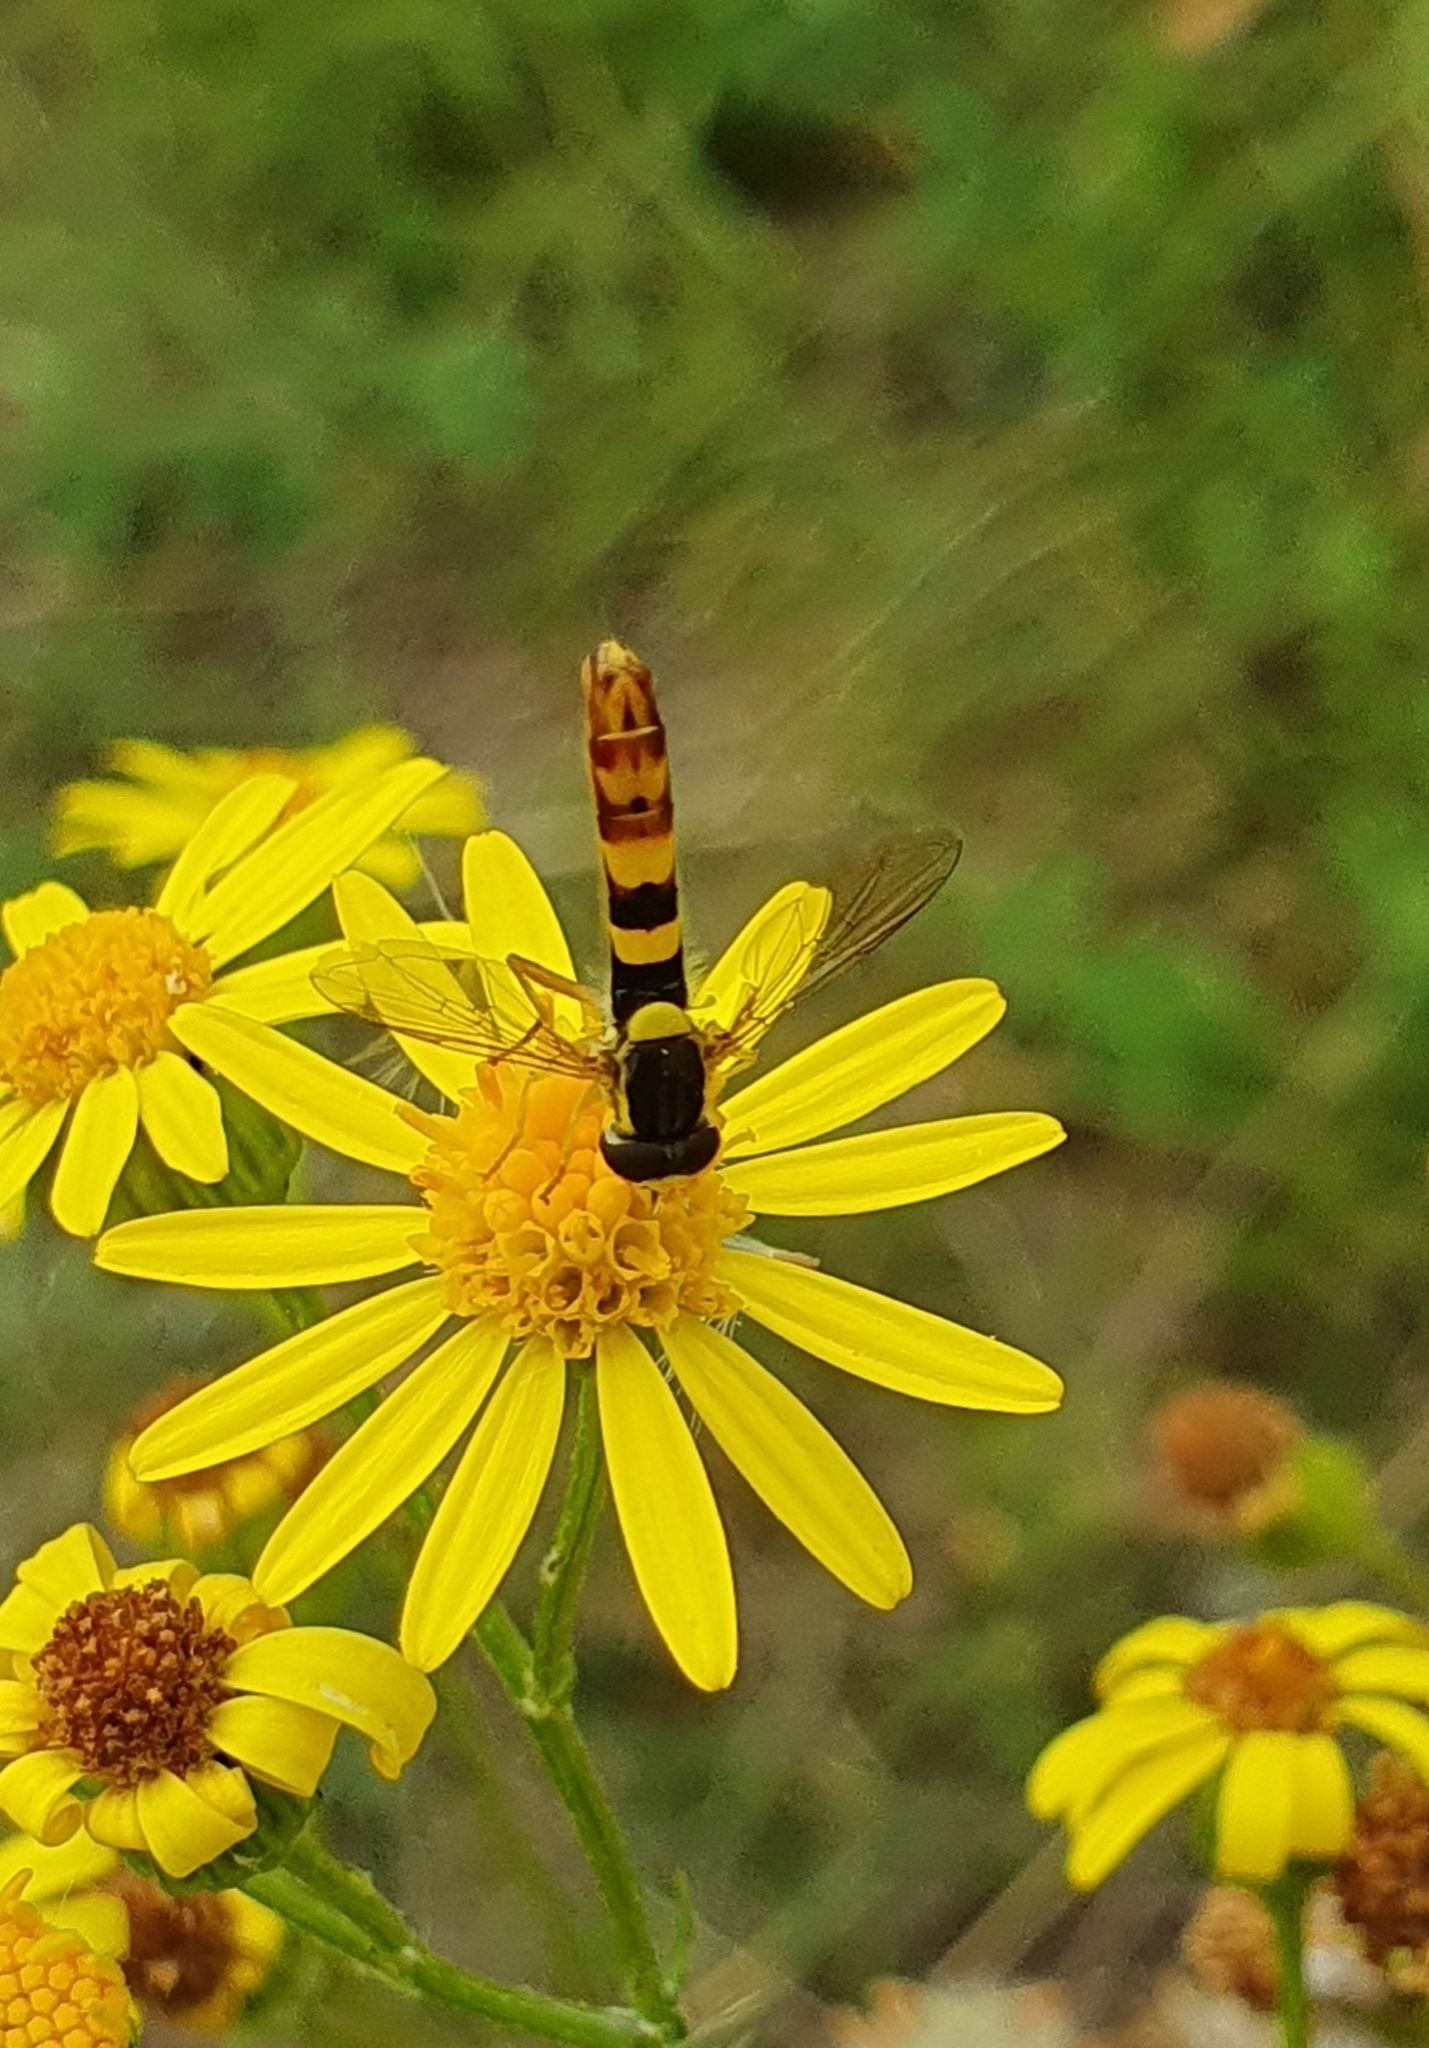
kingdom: Animalia
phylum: Arthropoda
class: Insecta
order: Diptera
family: Syrphidae
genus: Sphaerophoria
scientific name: Sphaerophoria scripta
